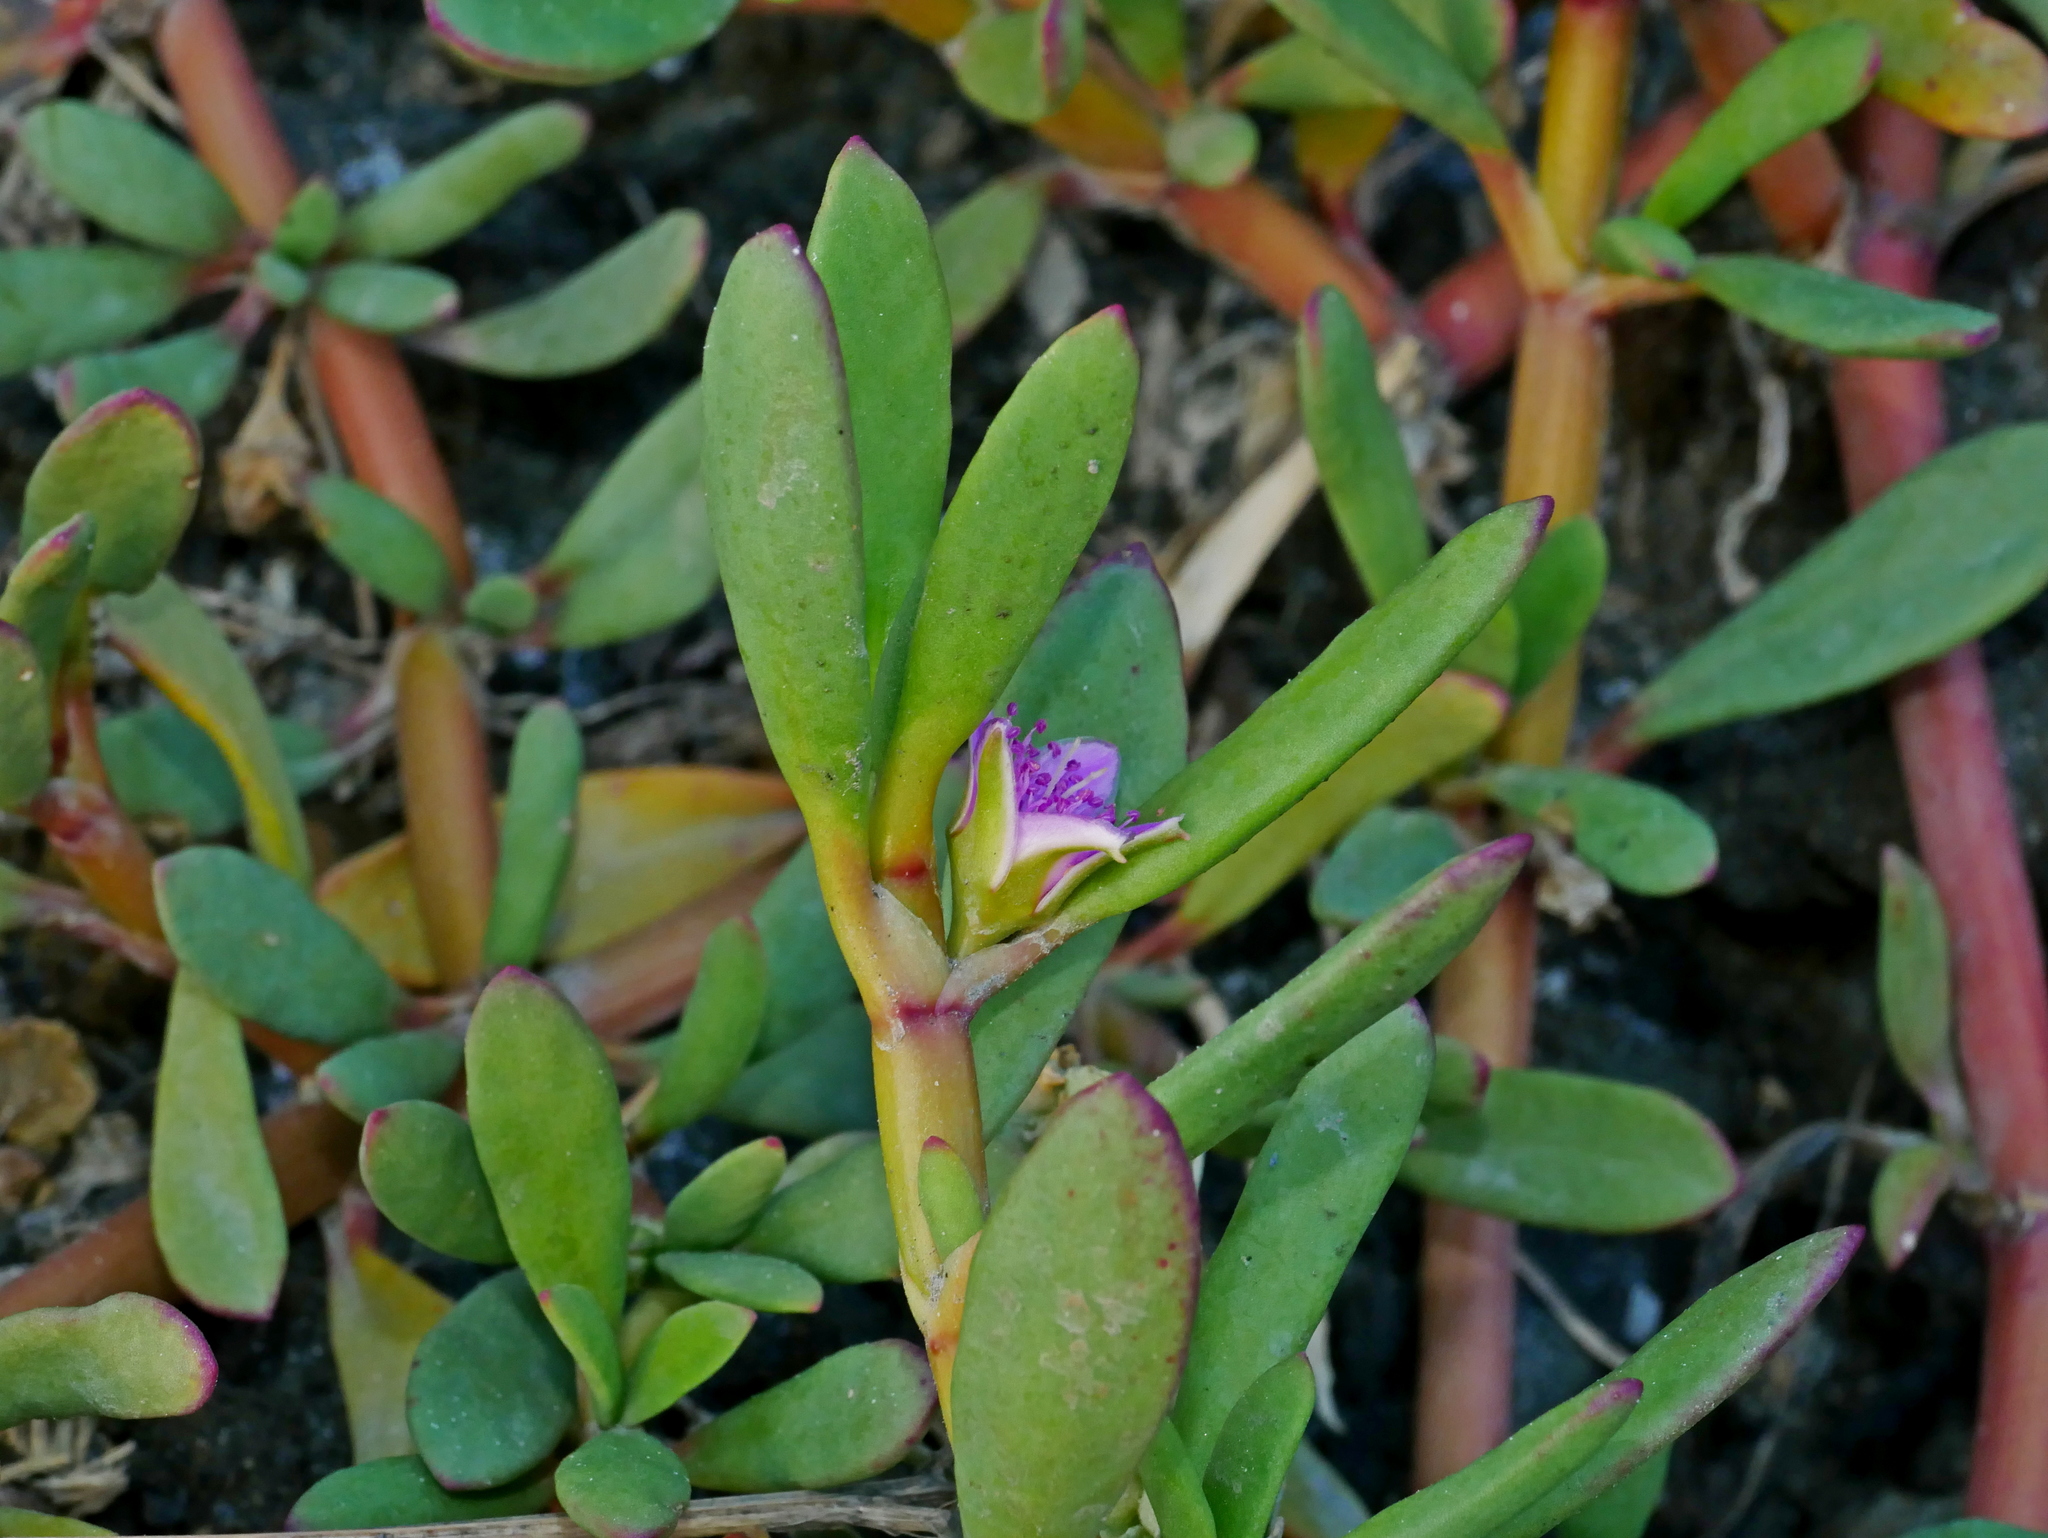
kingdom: Plantae
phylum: Tracheophyta
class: Magnoliopsida
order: Caryophyllales
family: Aizoaceae
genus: Sesuvium
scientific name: Sesuvium portulacastrum
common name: Sea-purslane
